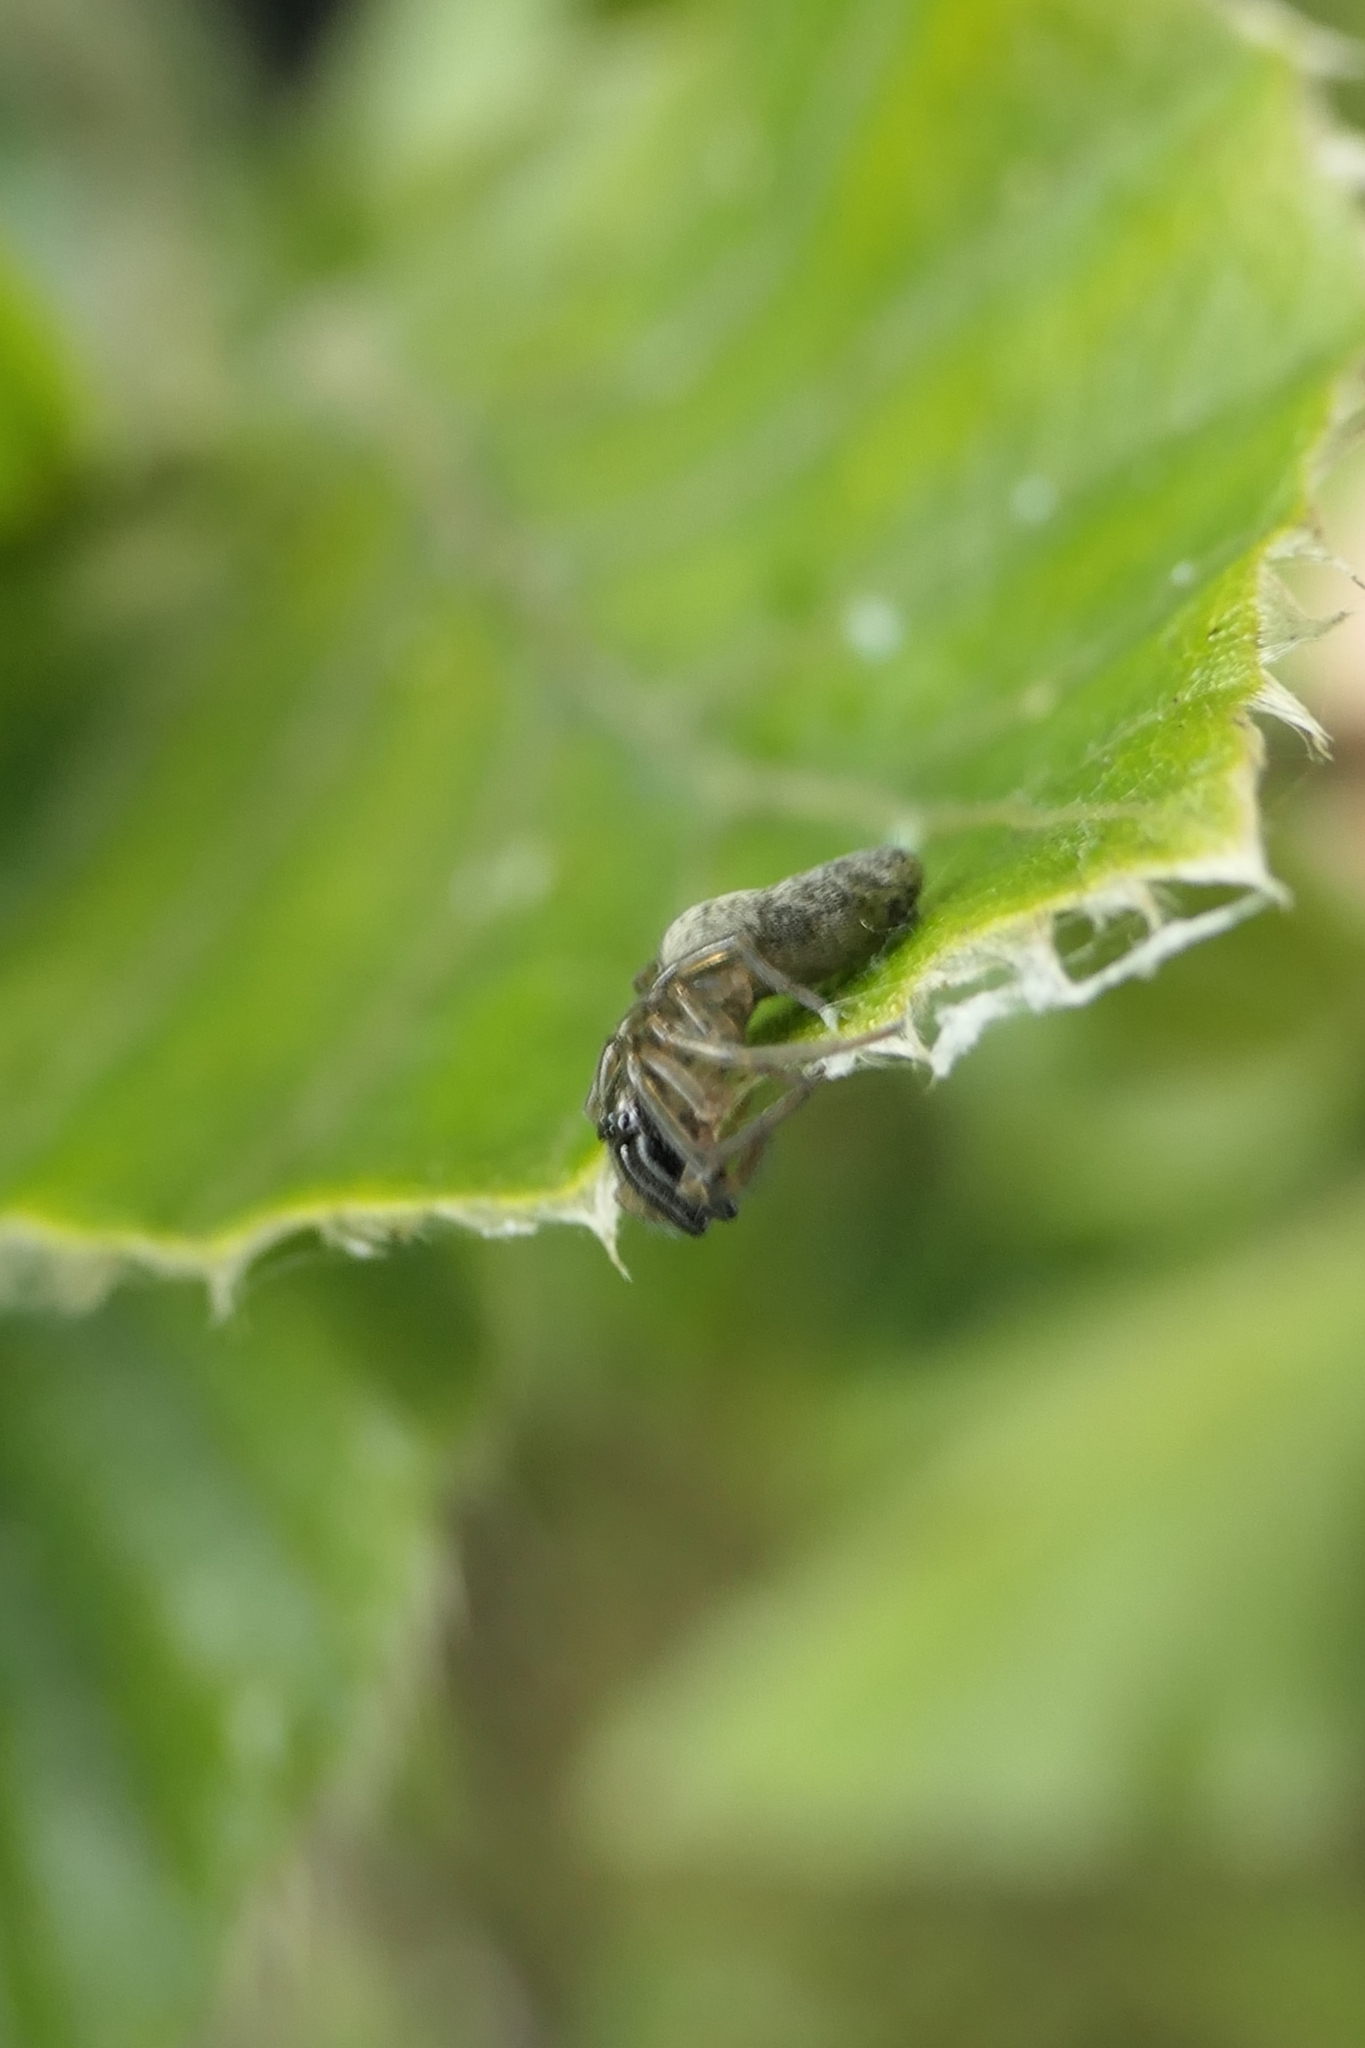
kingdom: Animalia
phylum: Arthropoda
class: Arachnida
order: Araneae
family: Desidae
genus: Notomatachia
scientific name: Notomatachia hirsuta
